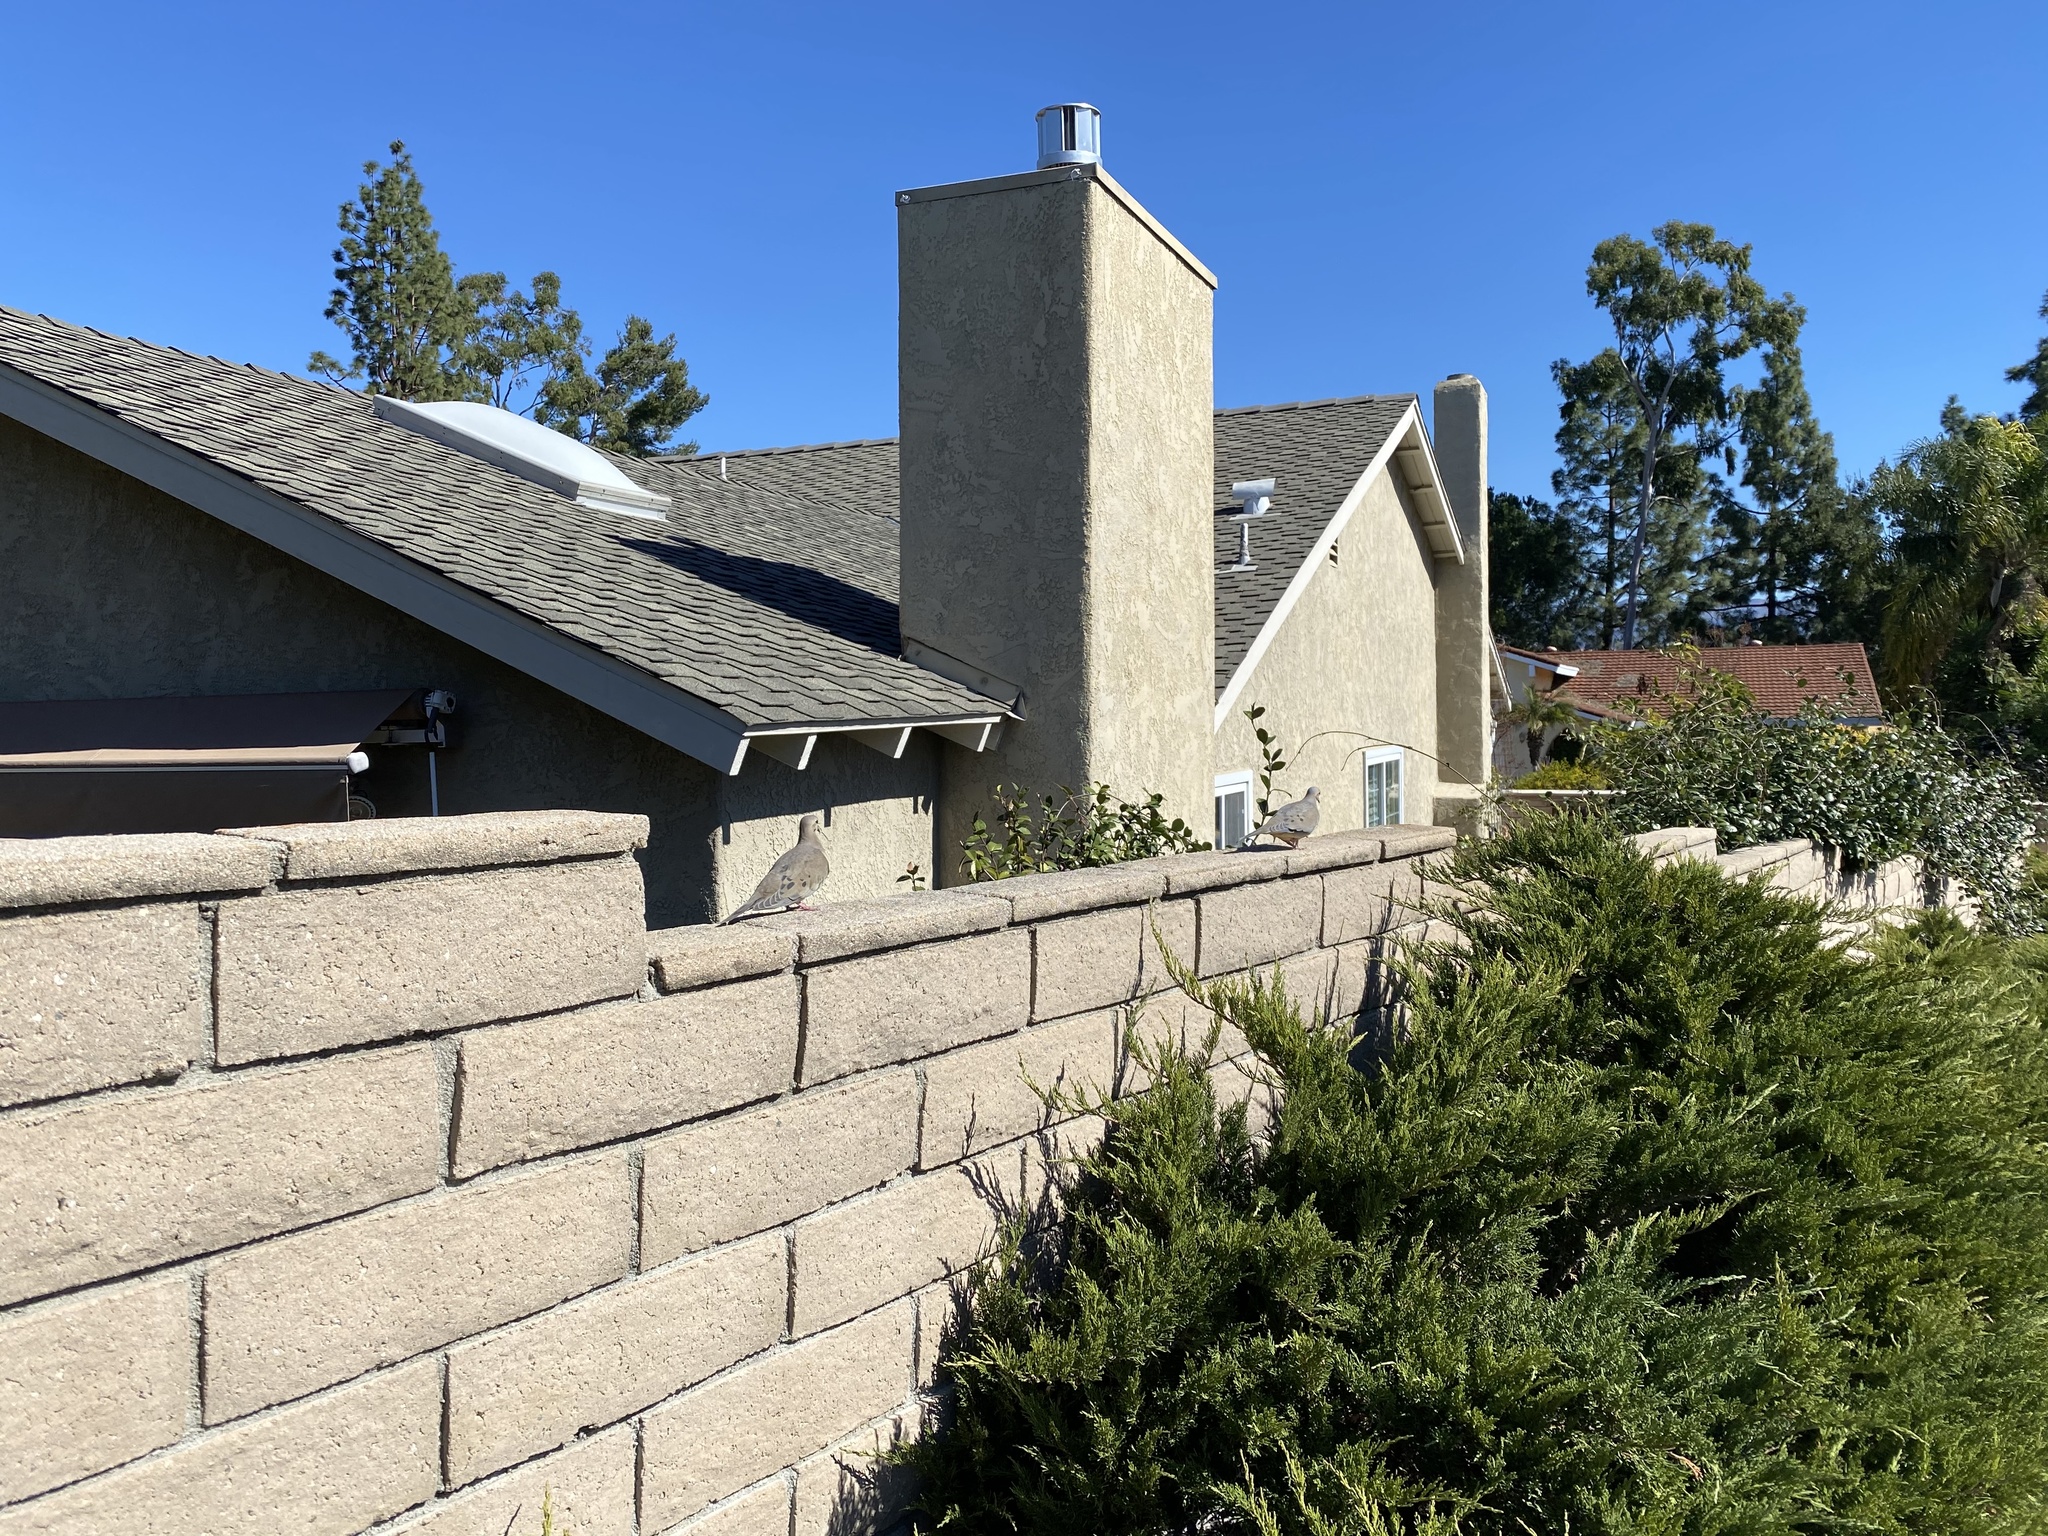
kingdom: Animalia
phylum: Chordata
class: Aves
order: Columbiformes
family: Columbidae
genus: Zenaida
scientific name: Zenaida macroura
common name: Mourning dove
